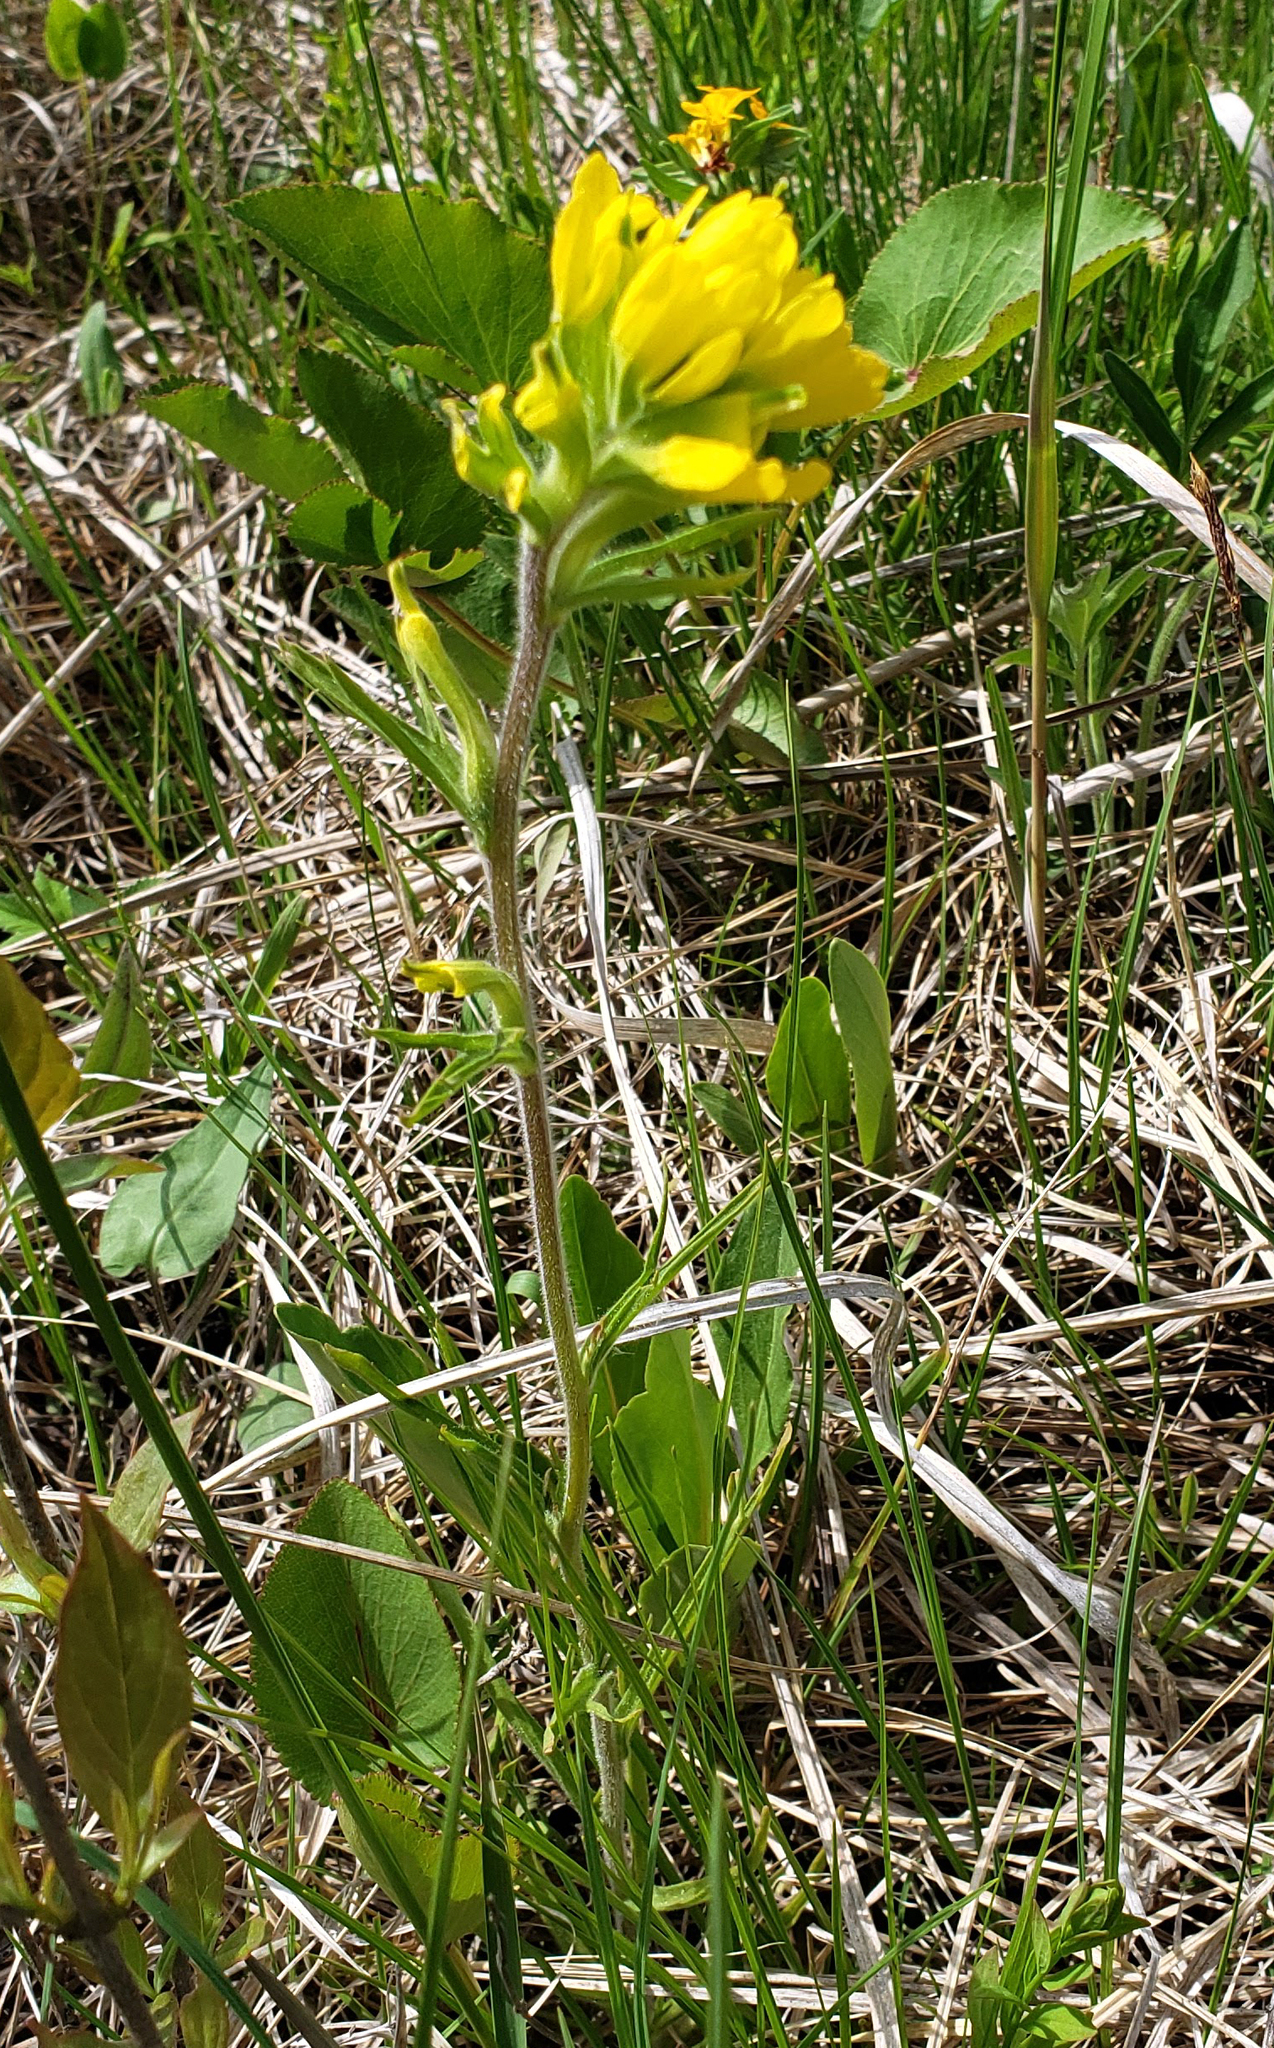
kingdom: Plantae
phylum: Tracheophyta
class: Magnoliopsida
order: Lamiales
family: Orobanchaceae
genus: Castilleja
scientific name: Castilleja coccinea
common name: Scarlet paintbrush
